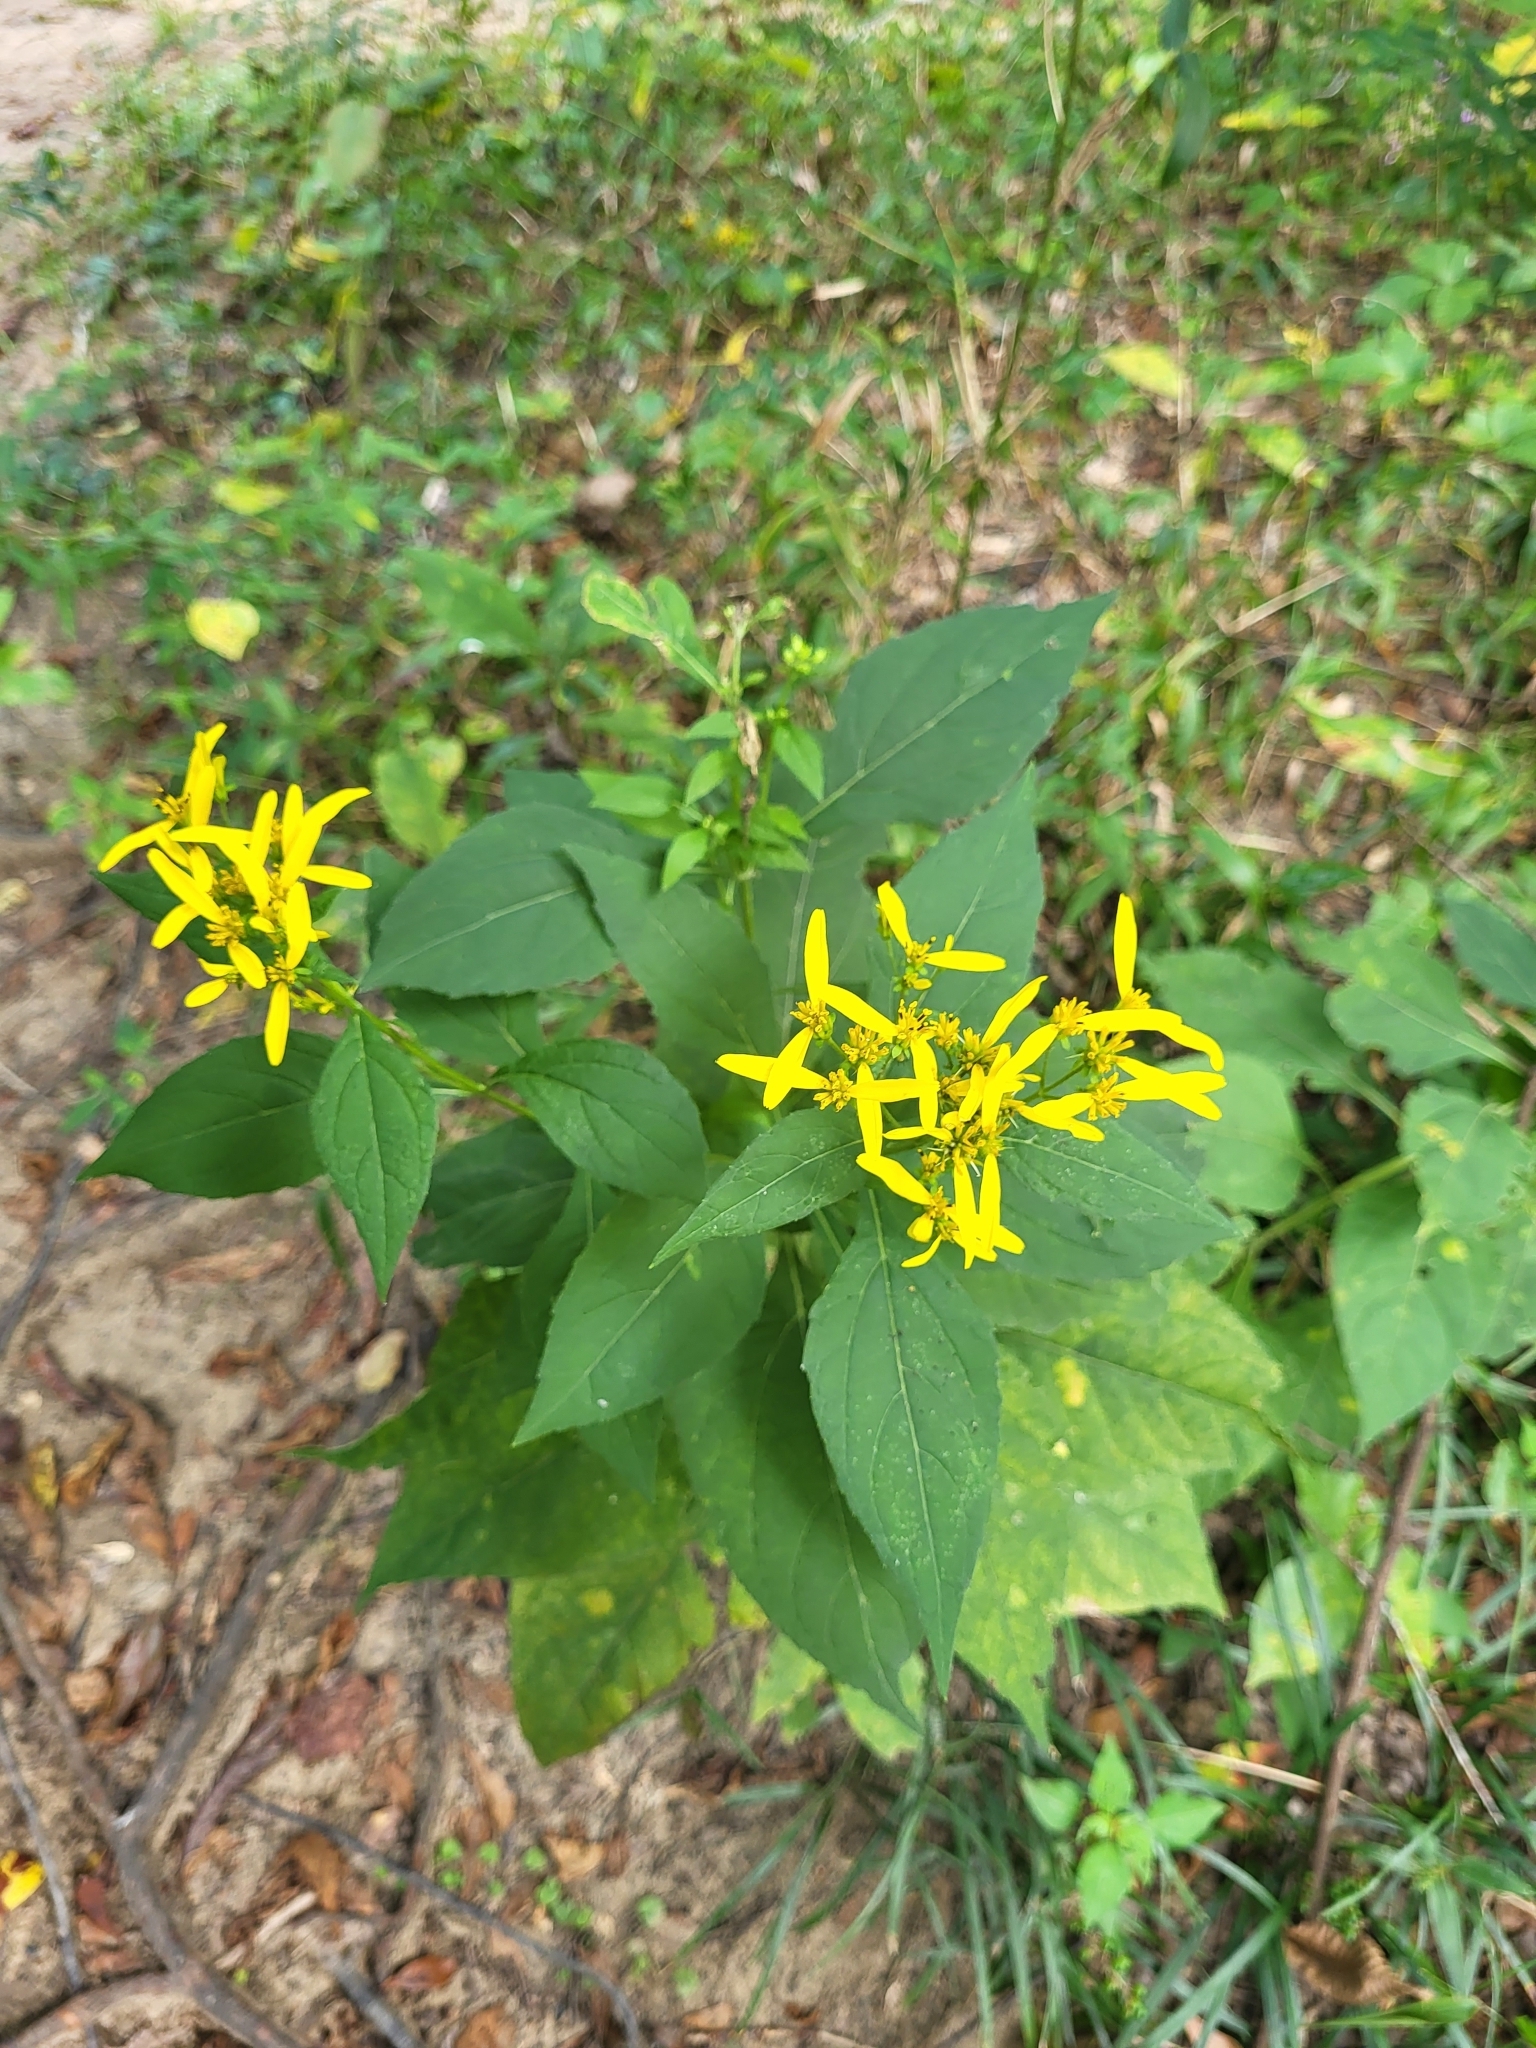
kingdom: Plantae
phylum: Tracheophyta
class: Magnoliopsida
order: Asterales
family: Asteraceae
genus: Verbesina
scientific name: Verbesina occidentalis
